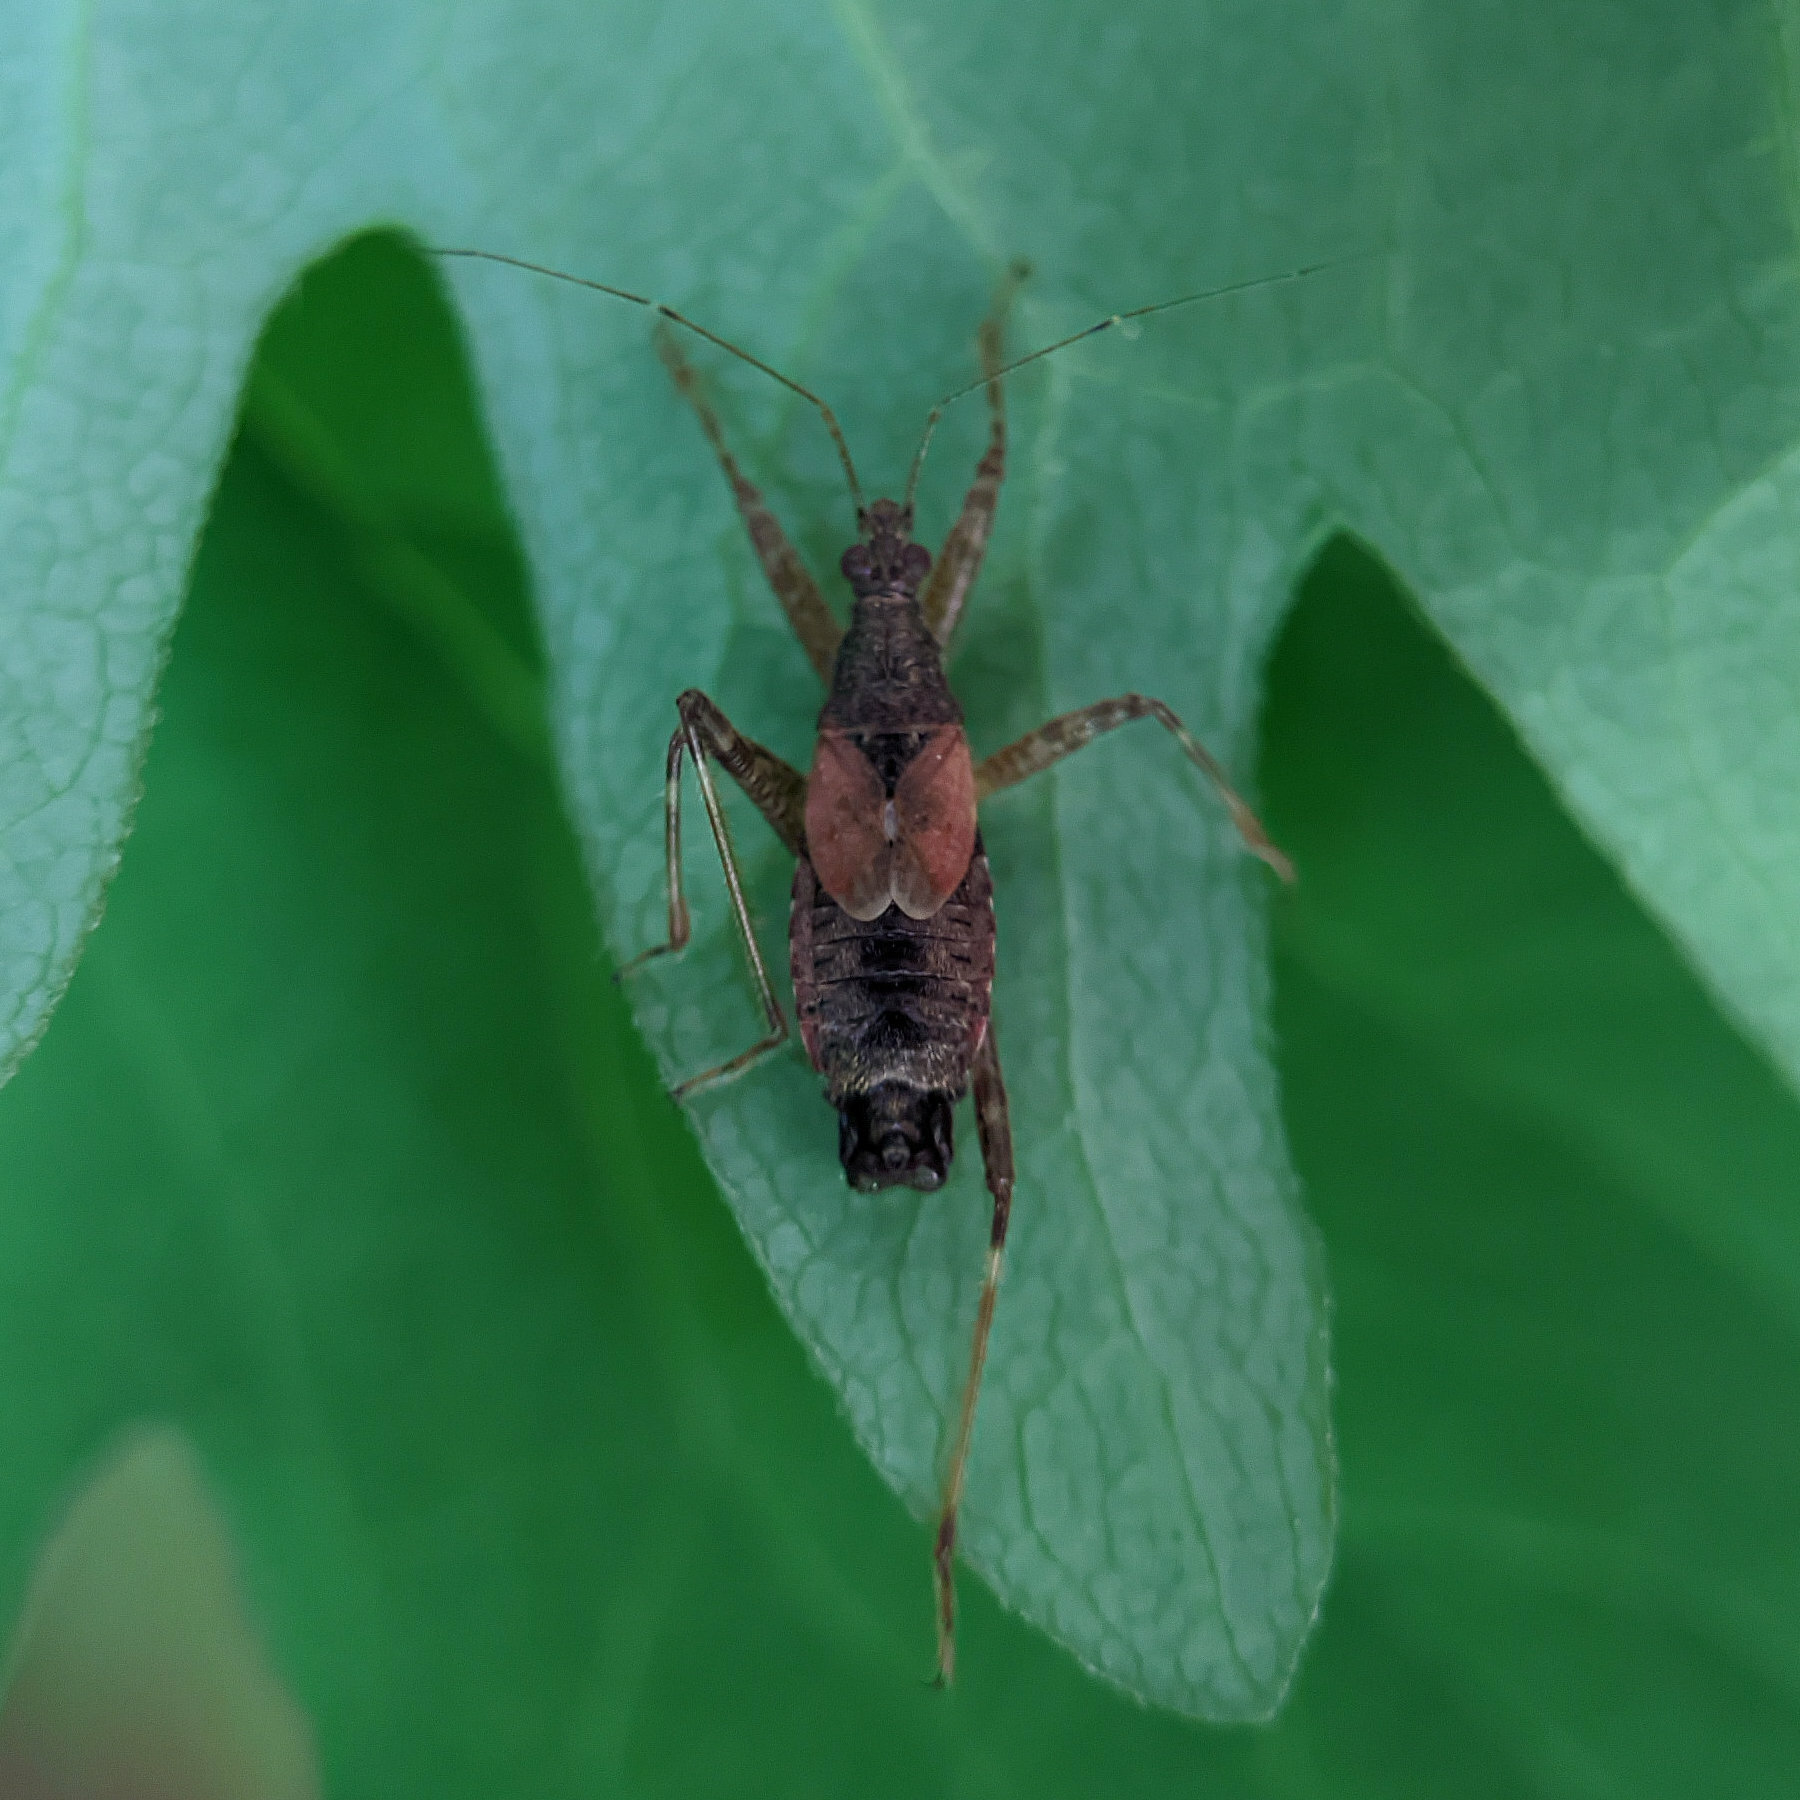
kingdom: Animalia
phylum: Arthropoda
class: Insecta
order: Hemiptera
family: Nabidae
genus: Himacerus
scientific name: Himacerus apterus
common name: Tree damsel bug
